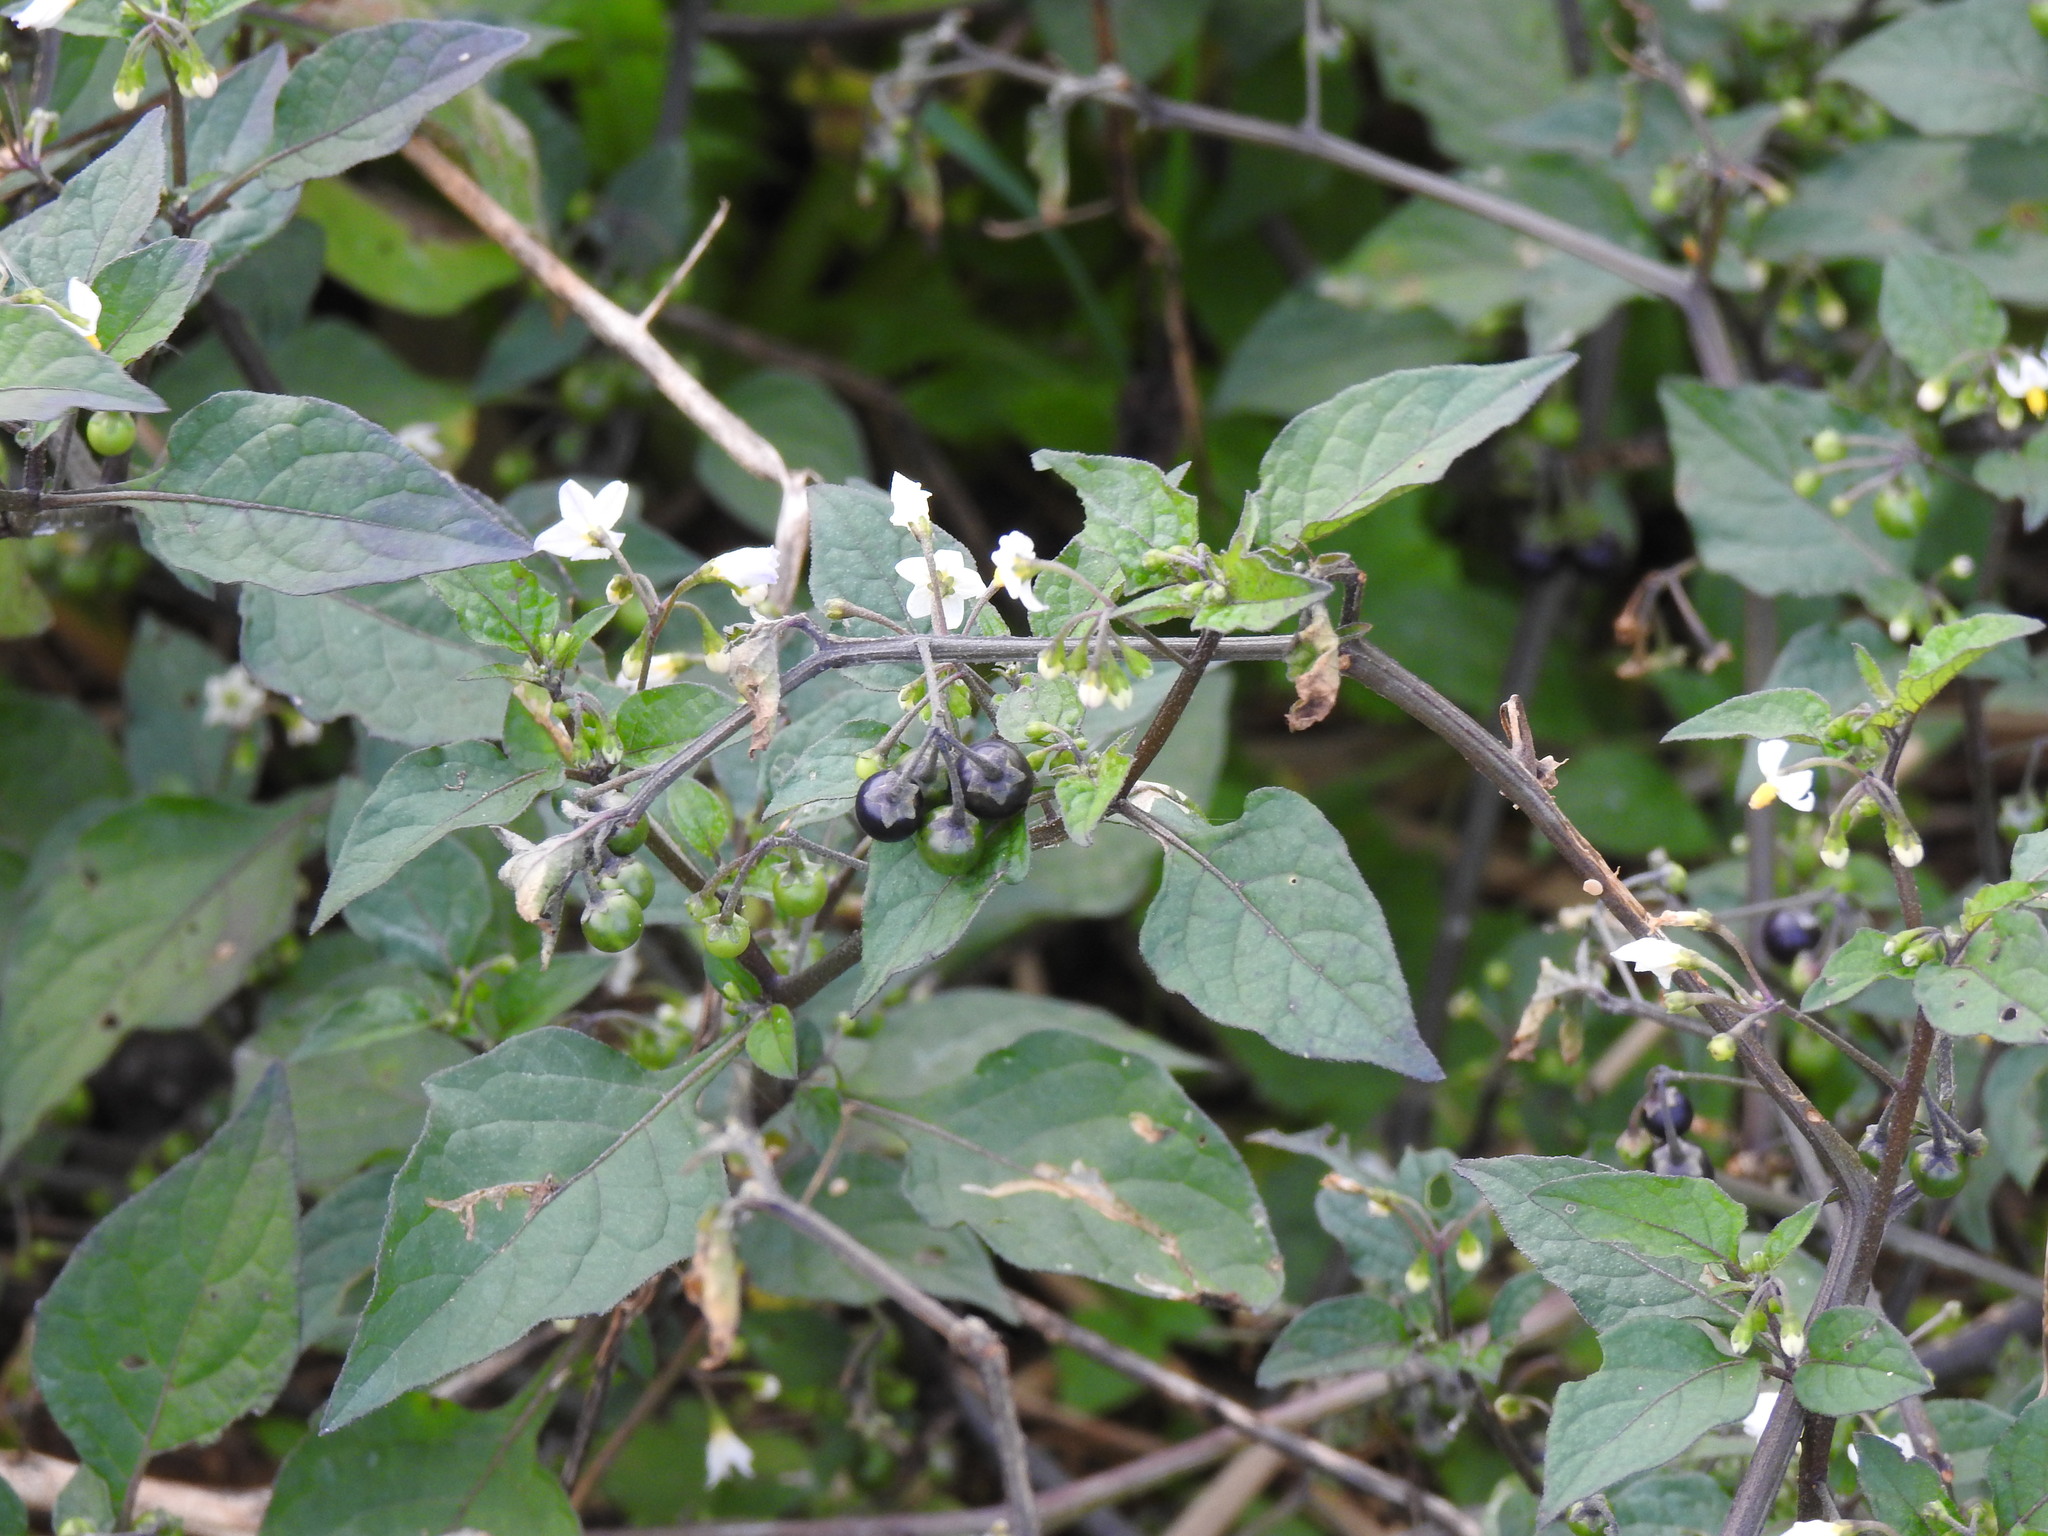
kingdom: Plantae
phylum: Tracheophyta
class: Magnoliopsida
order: Solanales
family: Solanaceae
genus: Solanum
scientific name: Solanum nigrum
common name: Black nightshade
